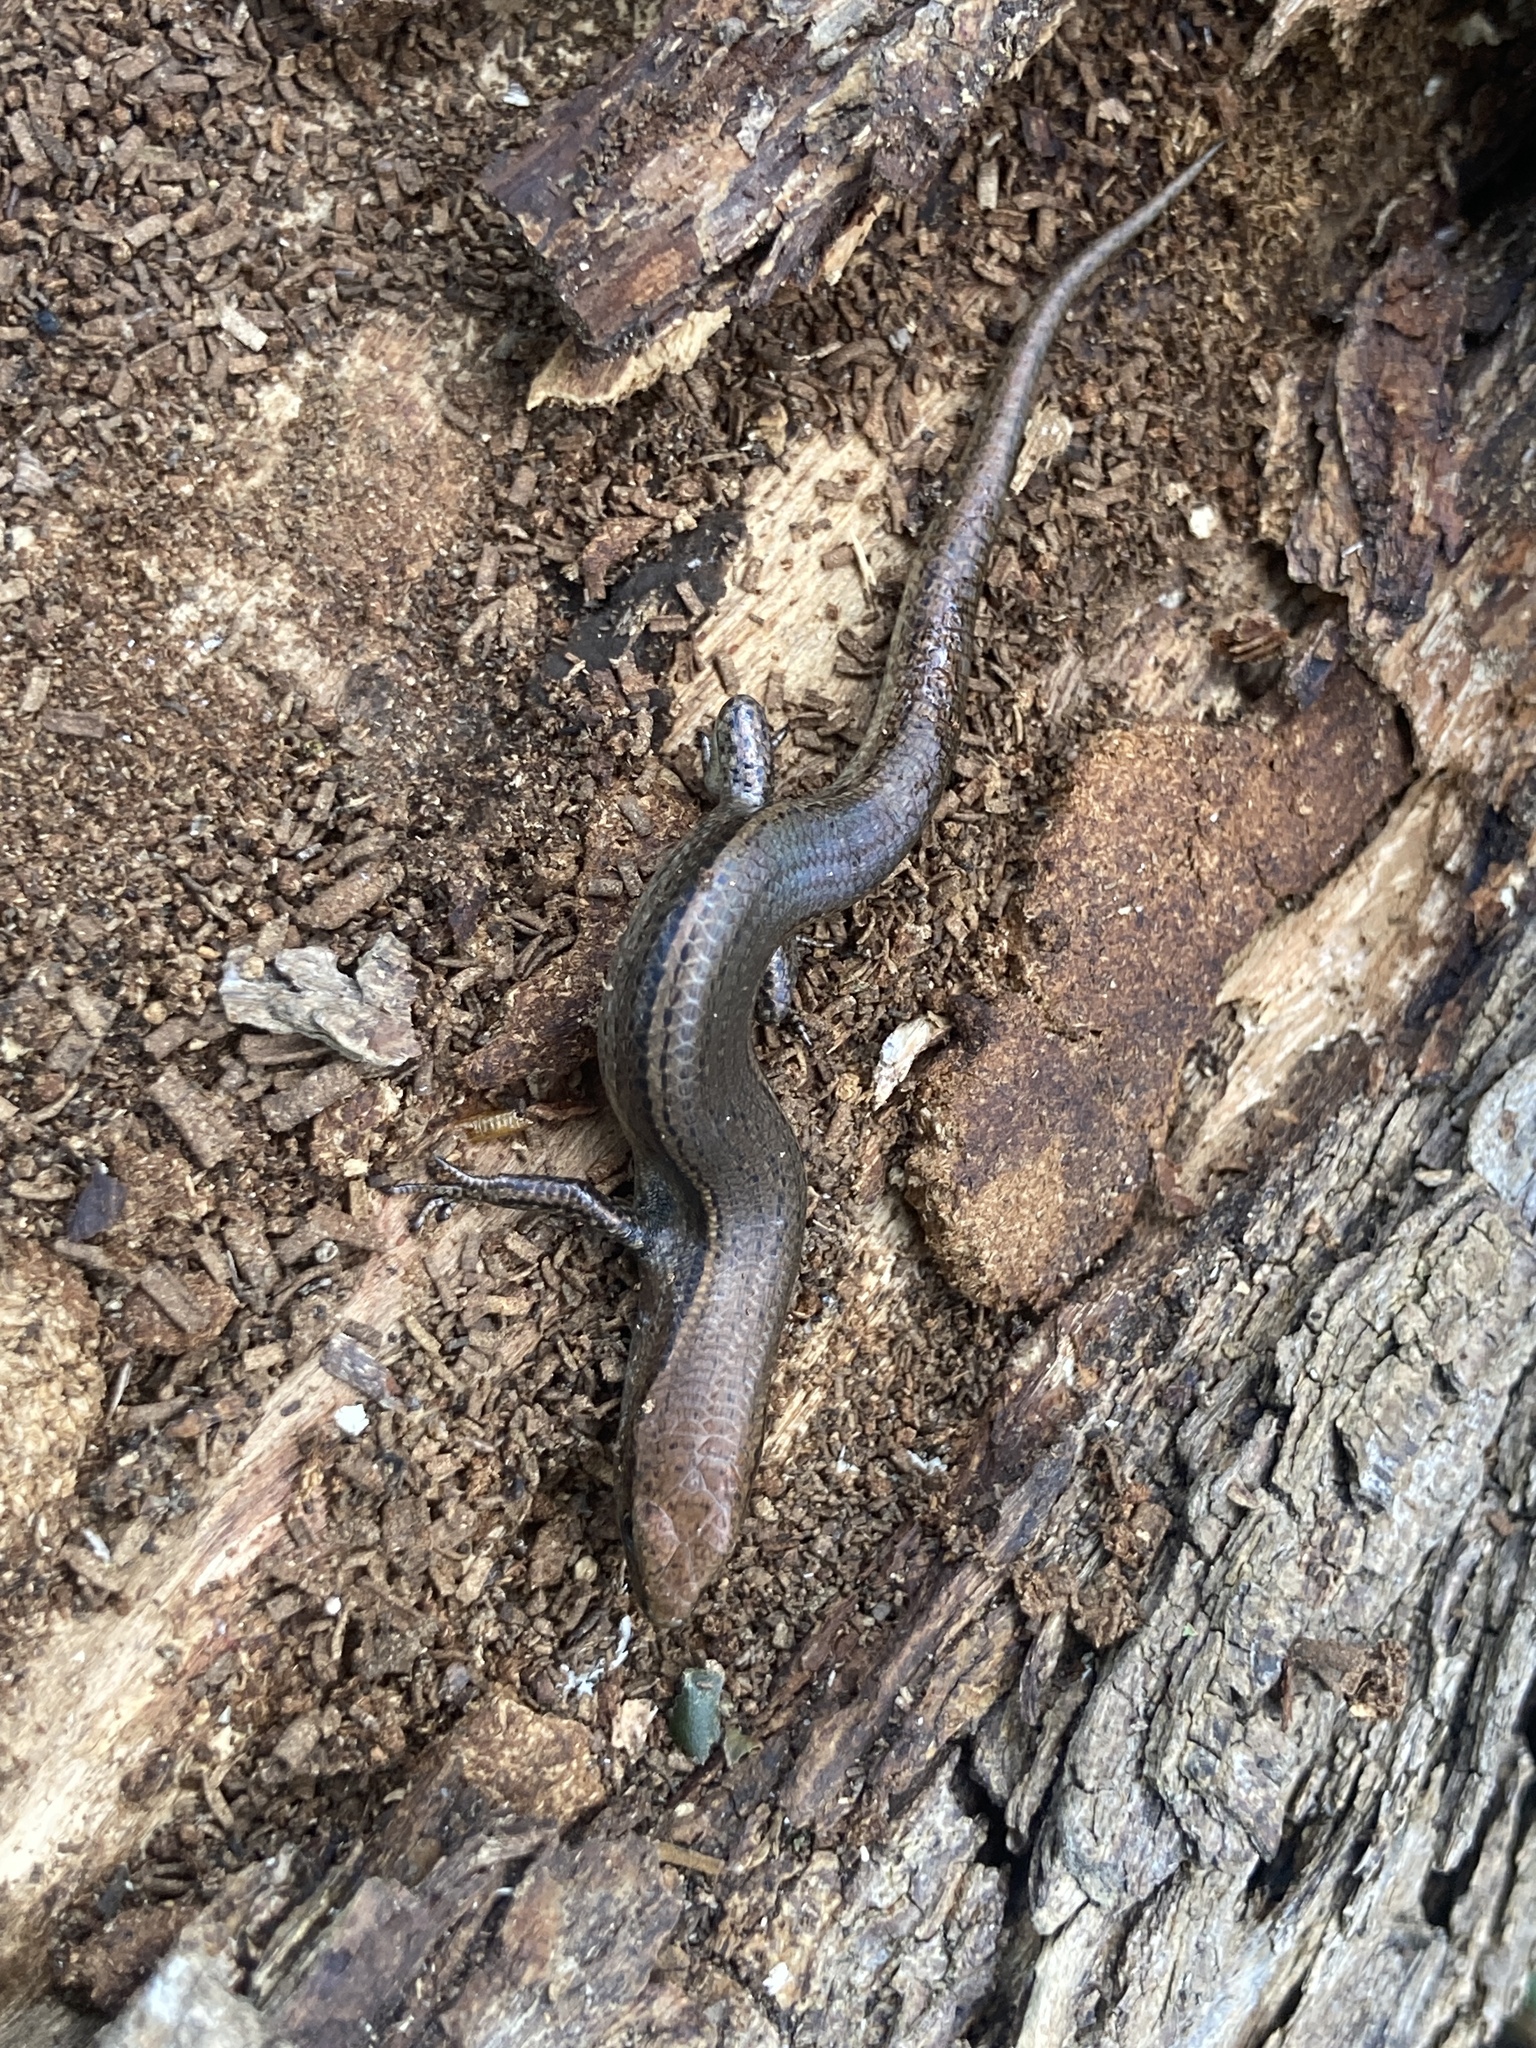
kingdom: Animalia
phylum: Chordata
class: Squamata
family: Scincidae
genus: Lampropholis
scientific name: Lampropholis delicata
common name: Plague skink
